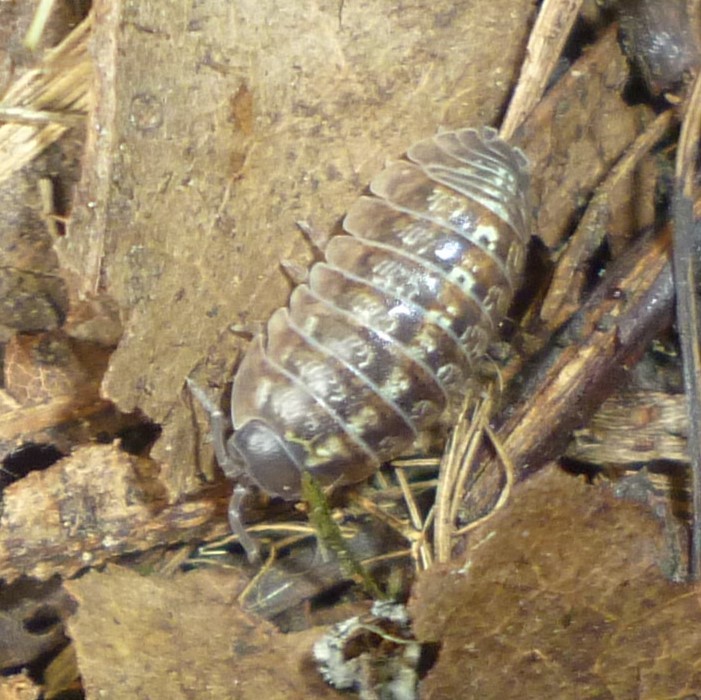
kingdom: Animalia
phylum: Arthropoda
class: Malacostraca
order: Isopoda
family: Armadillidiidae
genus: Armadillidium
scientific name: Armadillidium vulgare
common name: Common pill woodlouse
